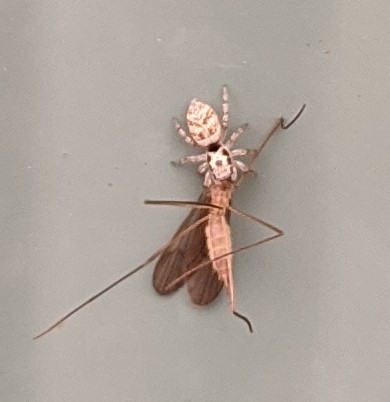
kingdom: Animalia
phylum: Arthropoda
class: Arachnida
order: Araneae
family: Salticidae
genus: Salticus
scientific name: Salticus scenicus
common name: Zebra jumper
